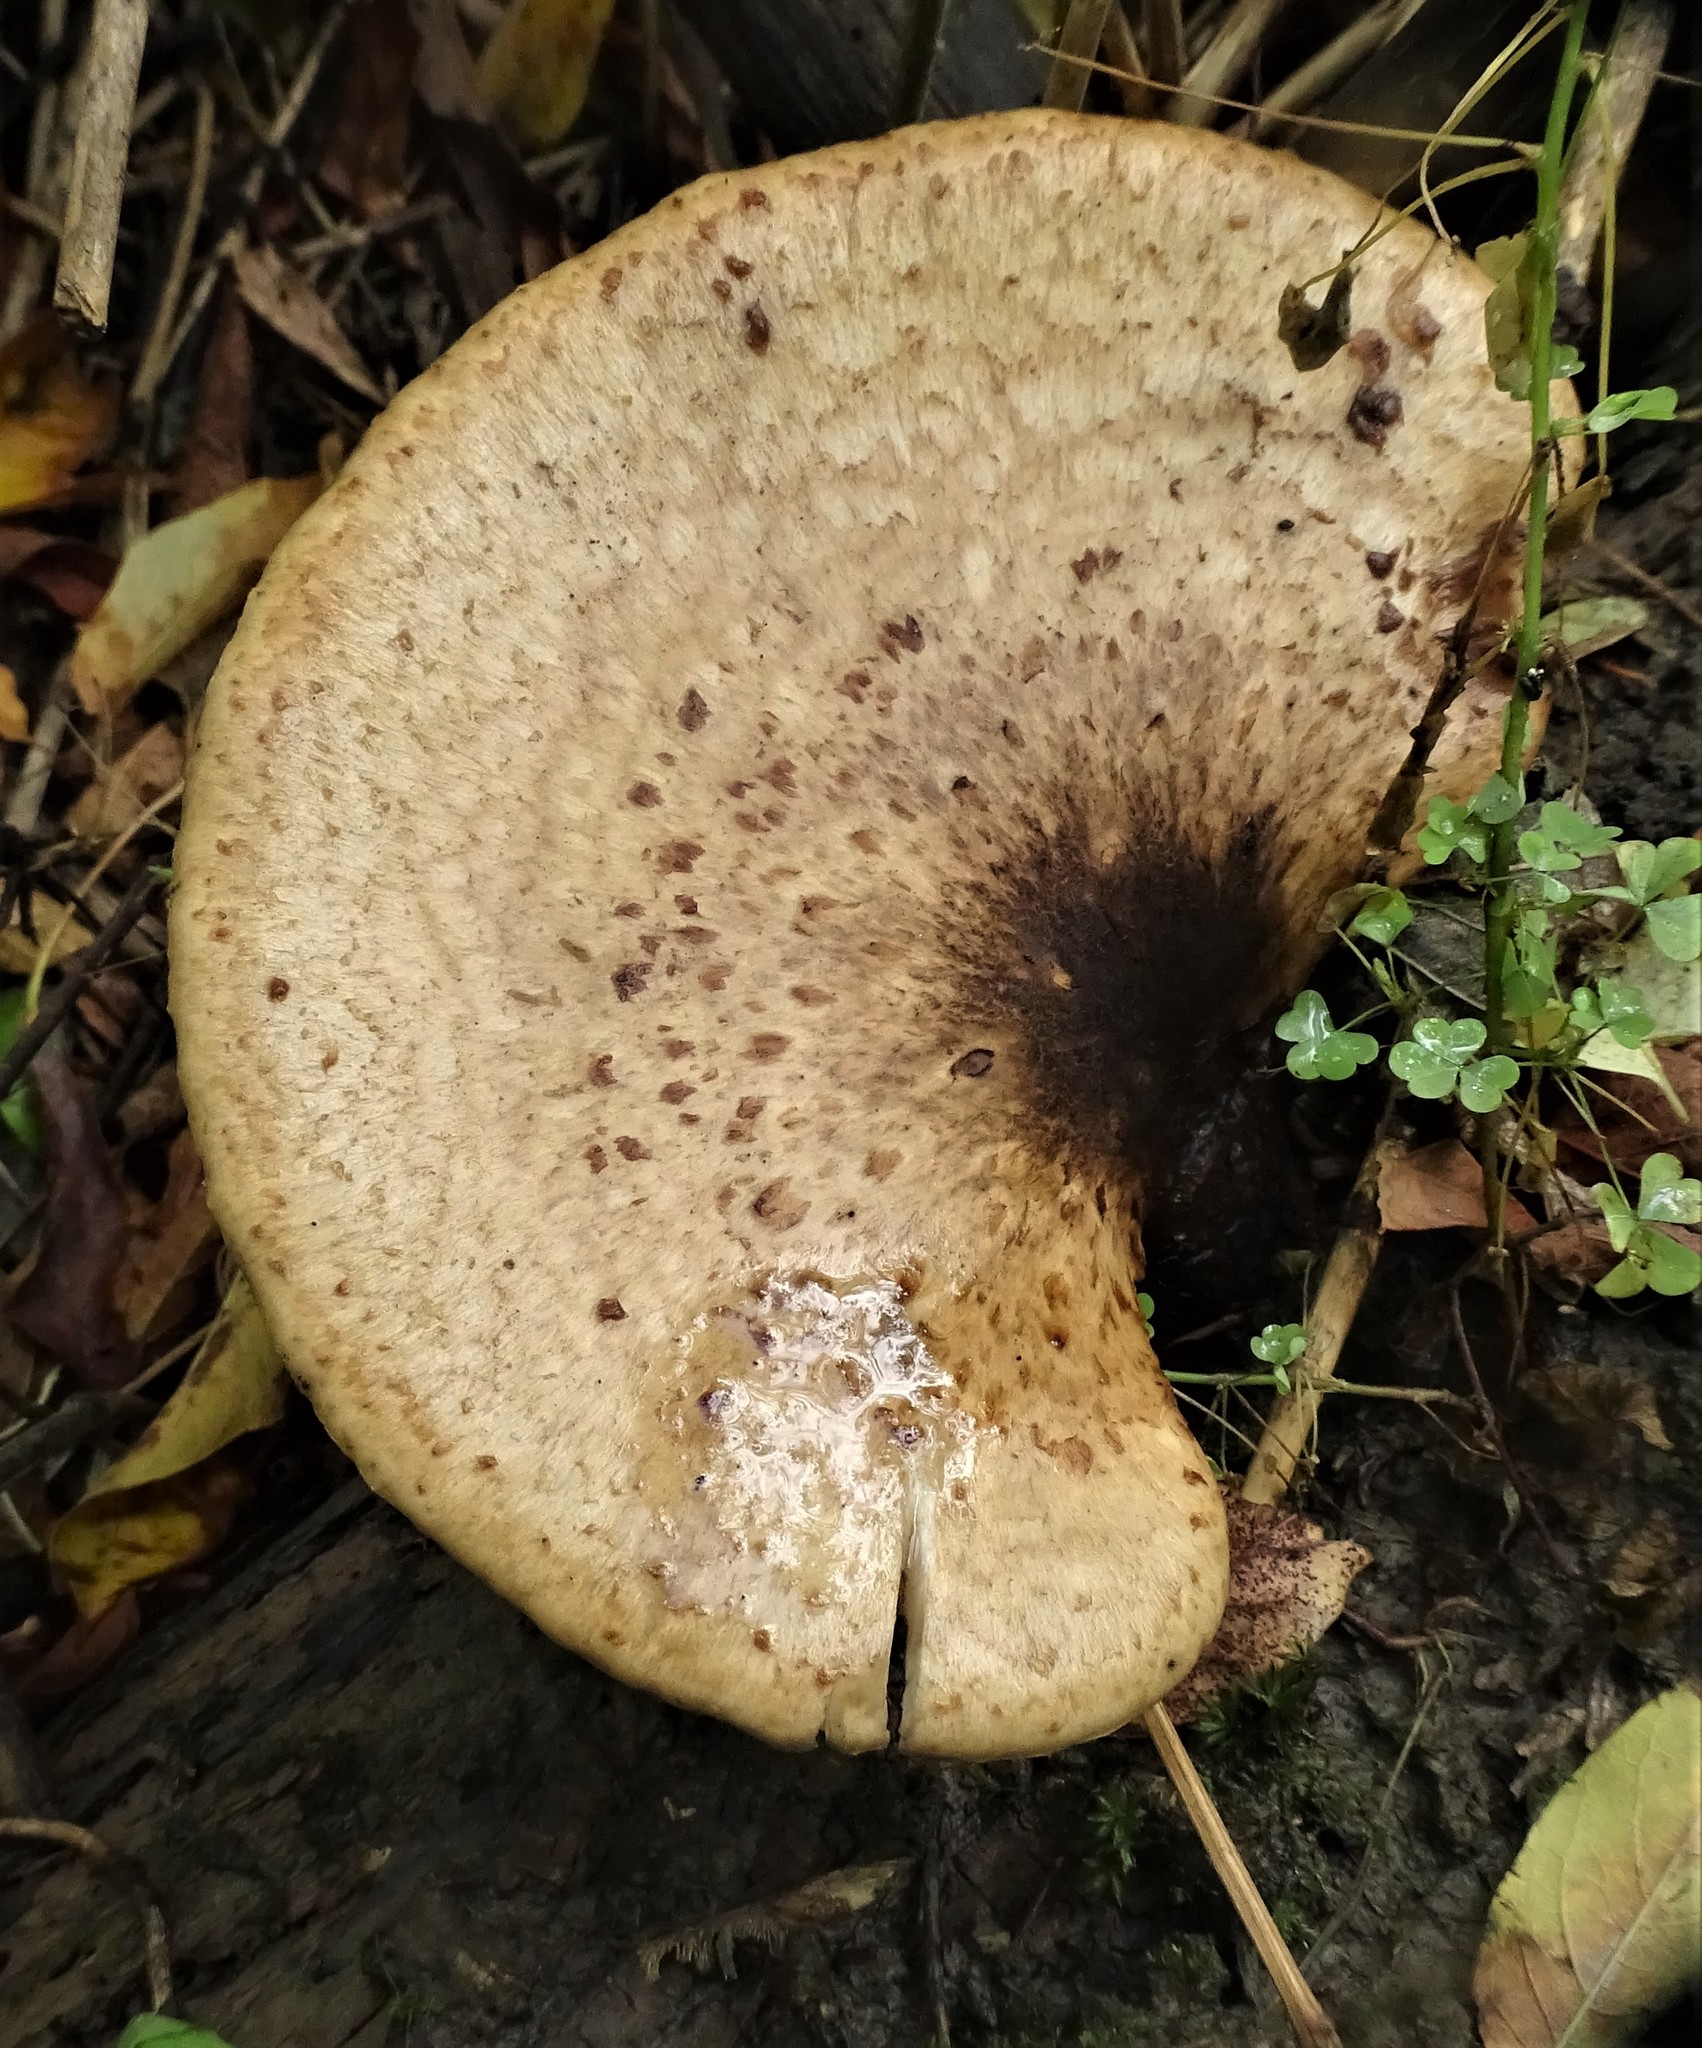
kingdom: Fungi
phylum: Basidiomycota
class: Agaricomycetes
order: Polyporales
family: Polyporaceae
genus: Cerioporus
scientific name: Cerioporus squamosus
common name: Dryad's saddle
